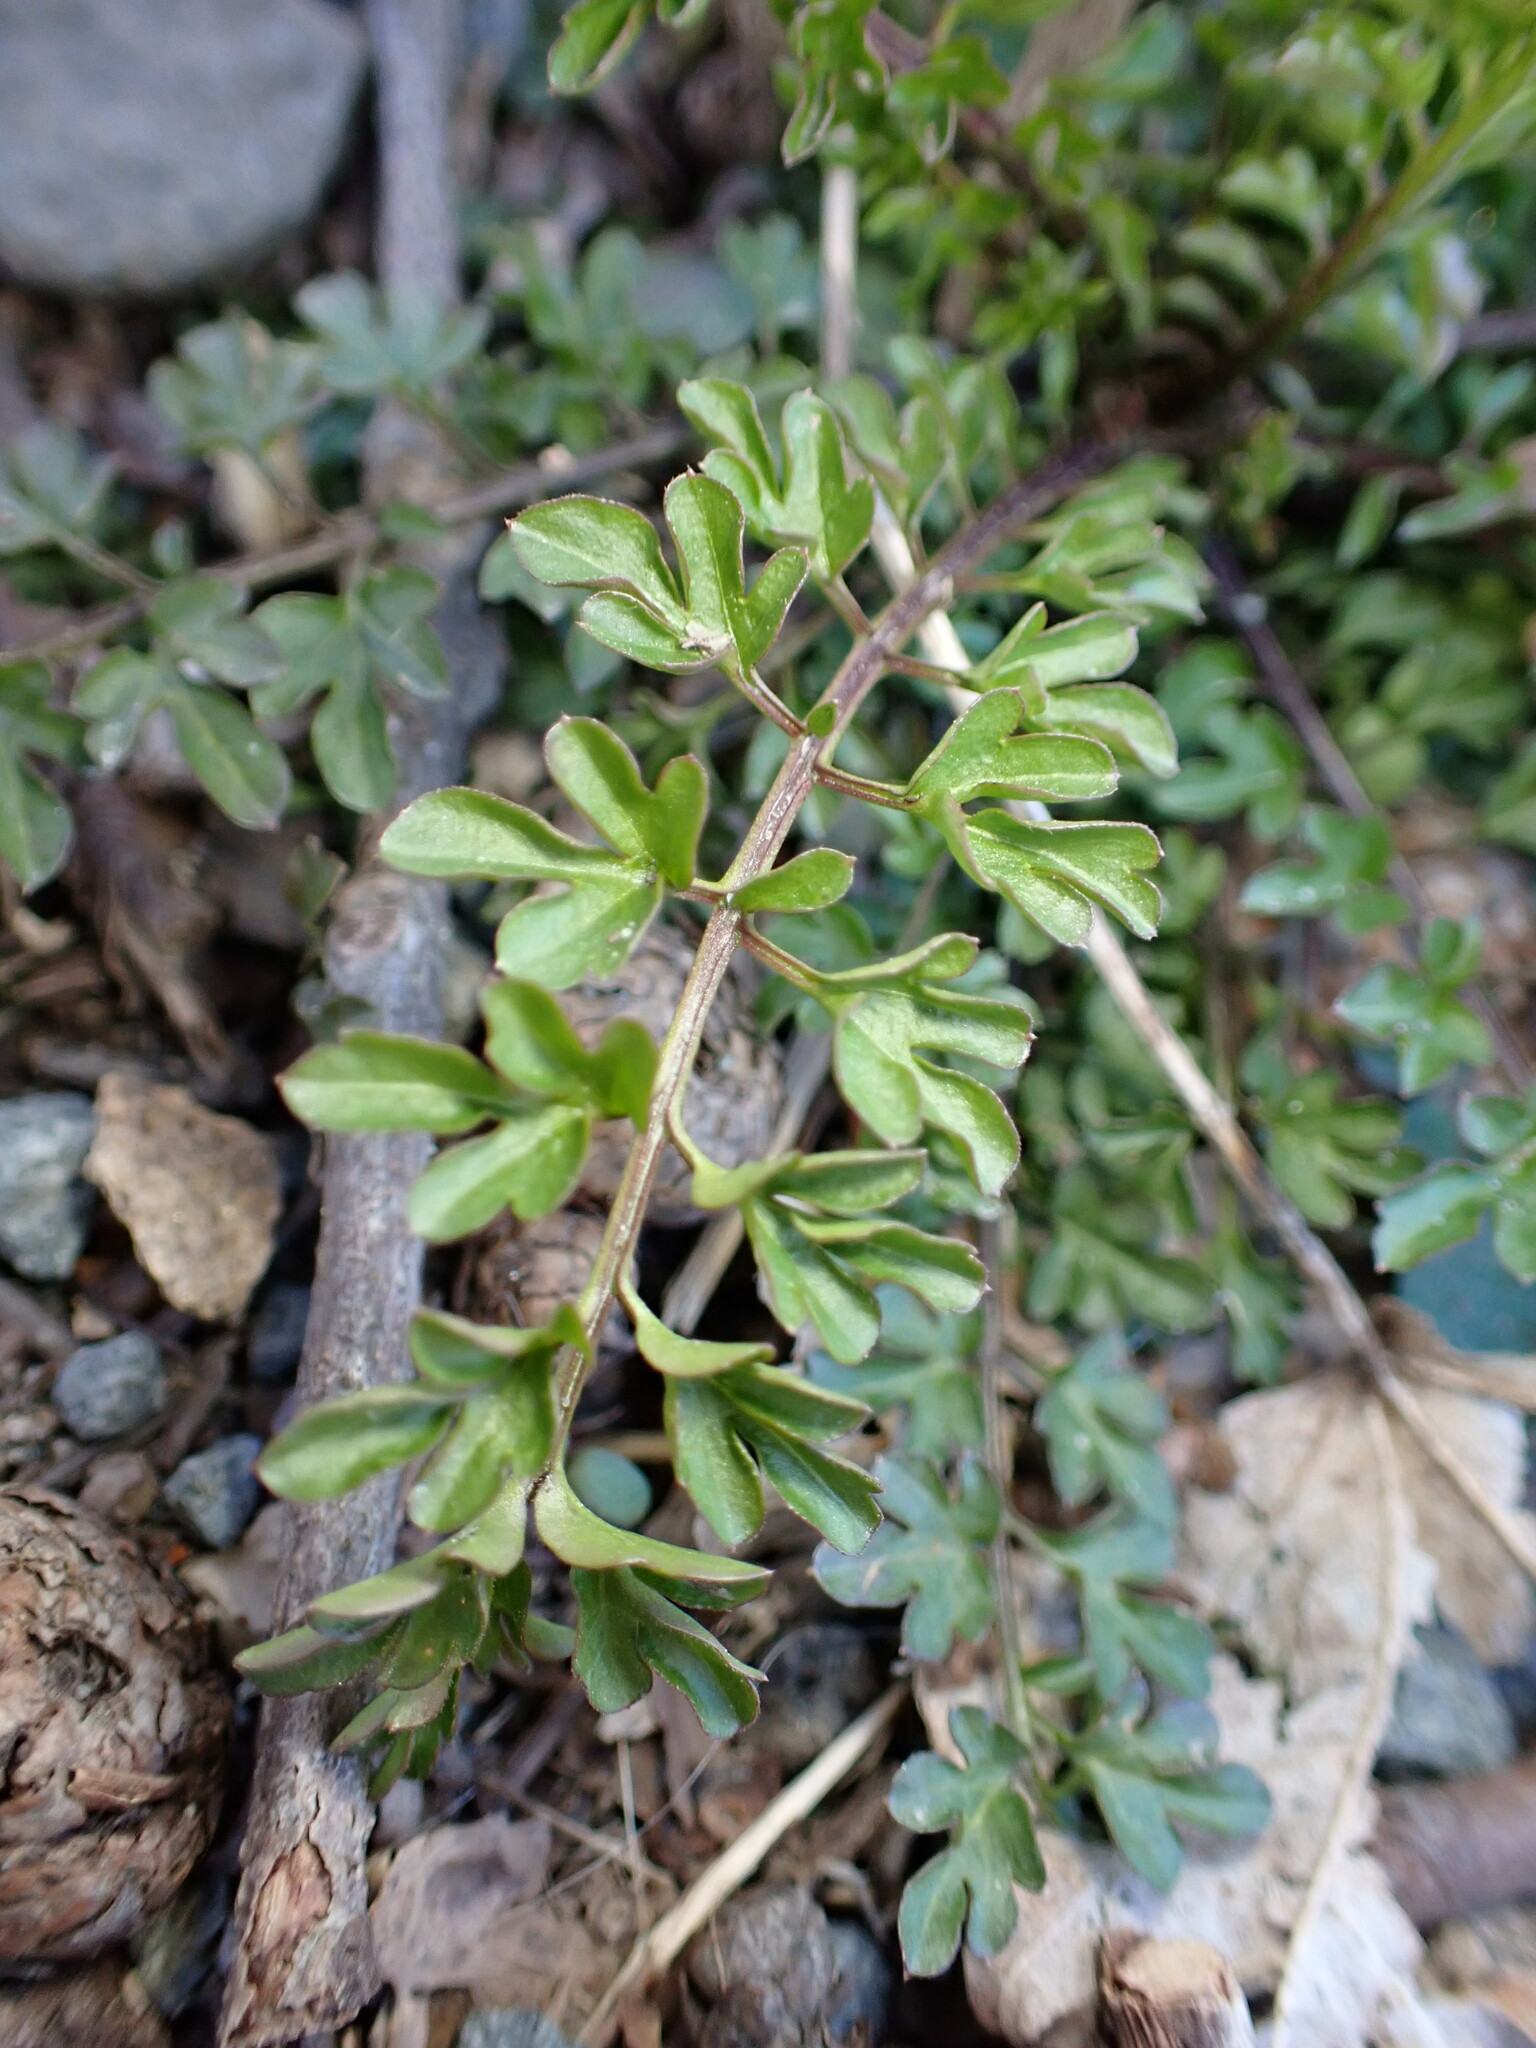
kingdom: Plantae
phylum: Tracheophyta
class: Magnoliopsida
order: Brassicales
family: Brassicaceae
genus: Cardamine
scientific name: Cardamine impatiens
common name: Narrow-leaved bitter-cress
